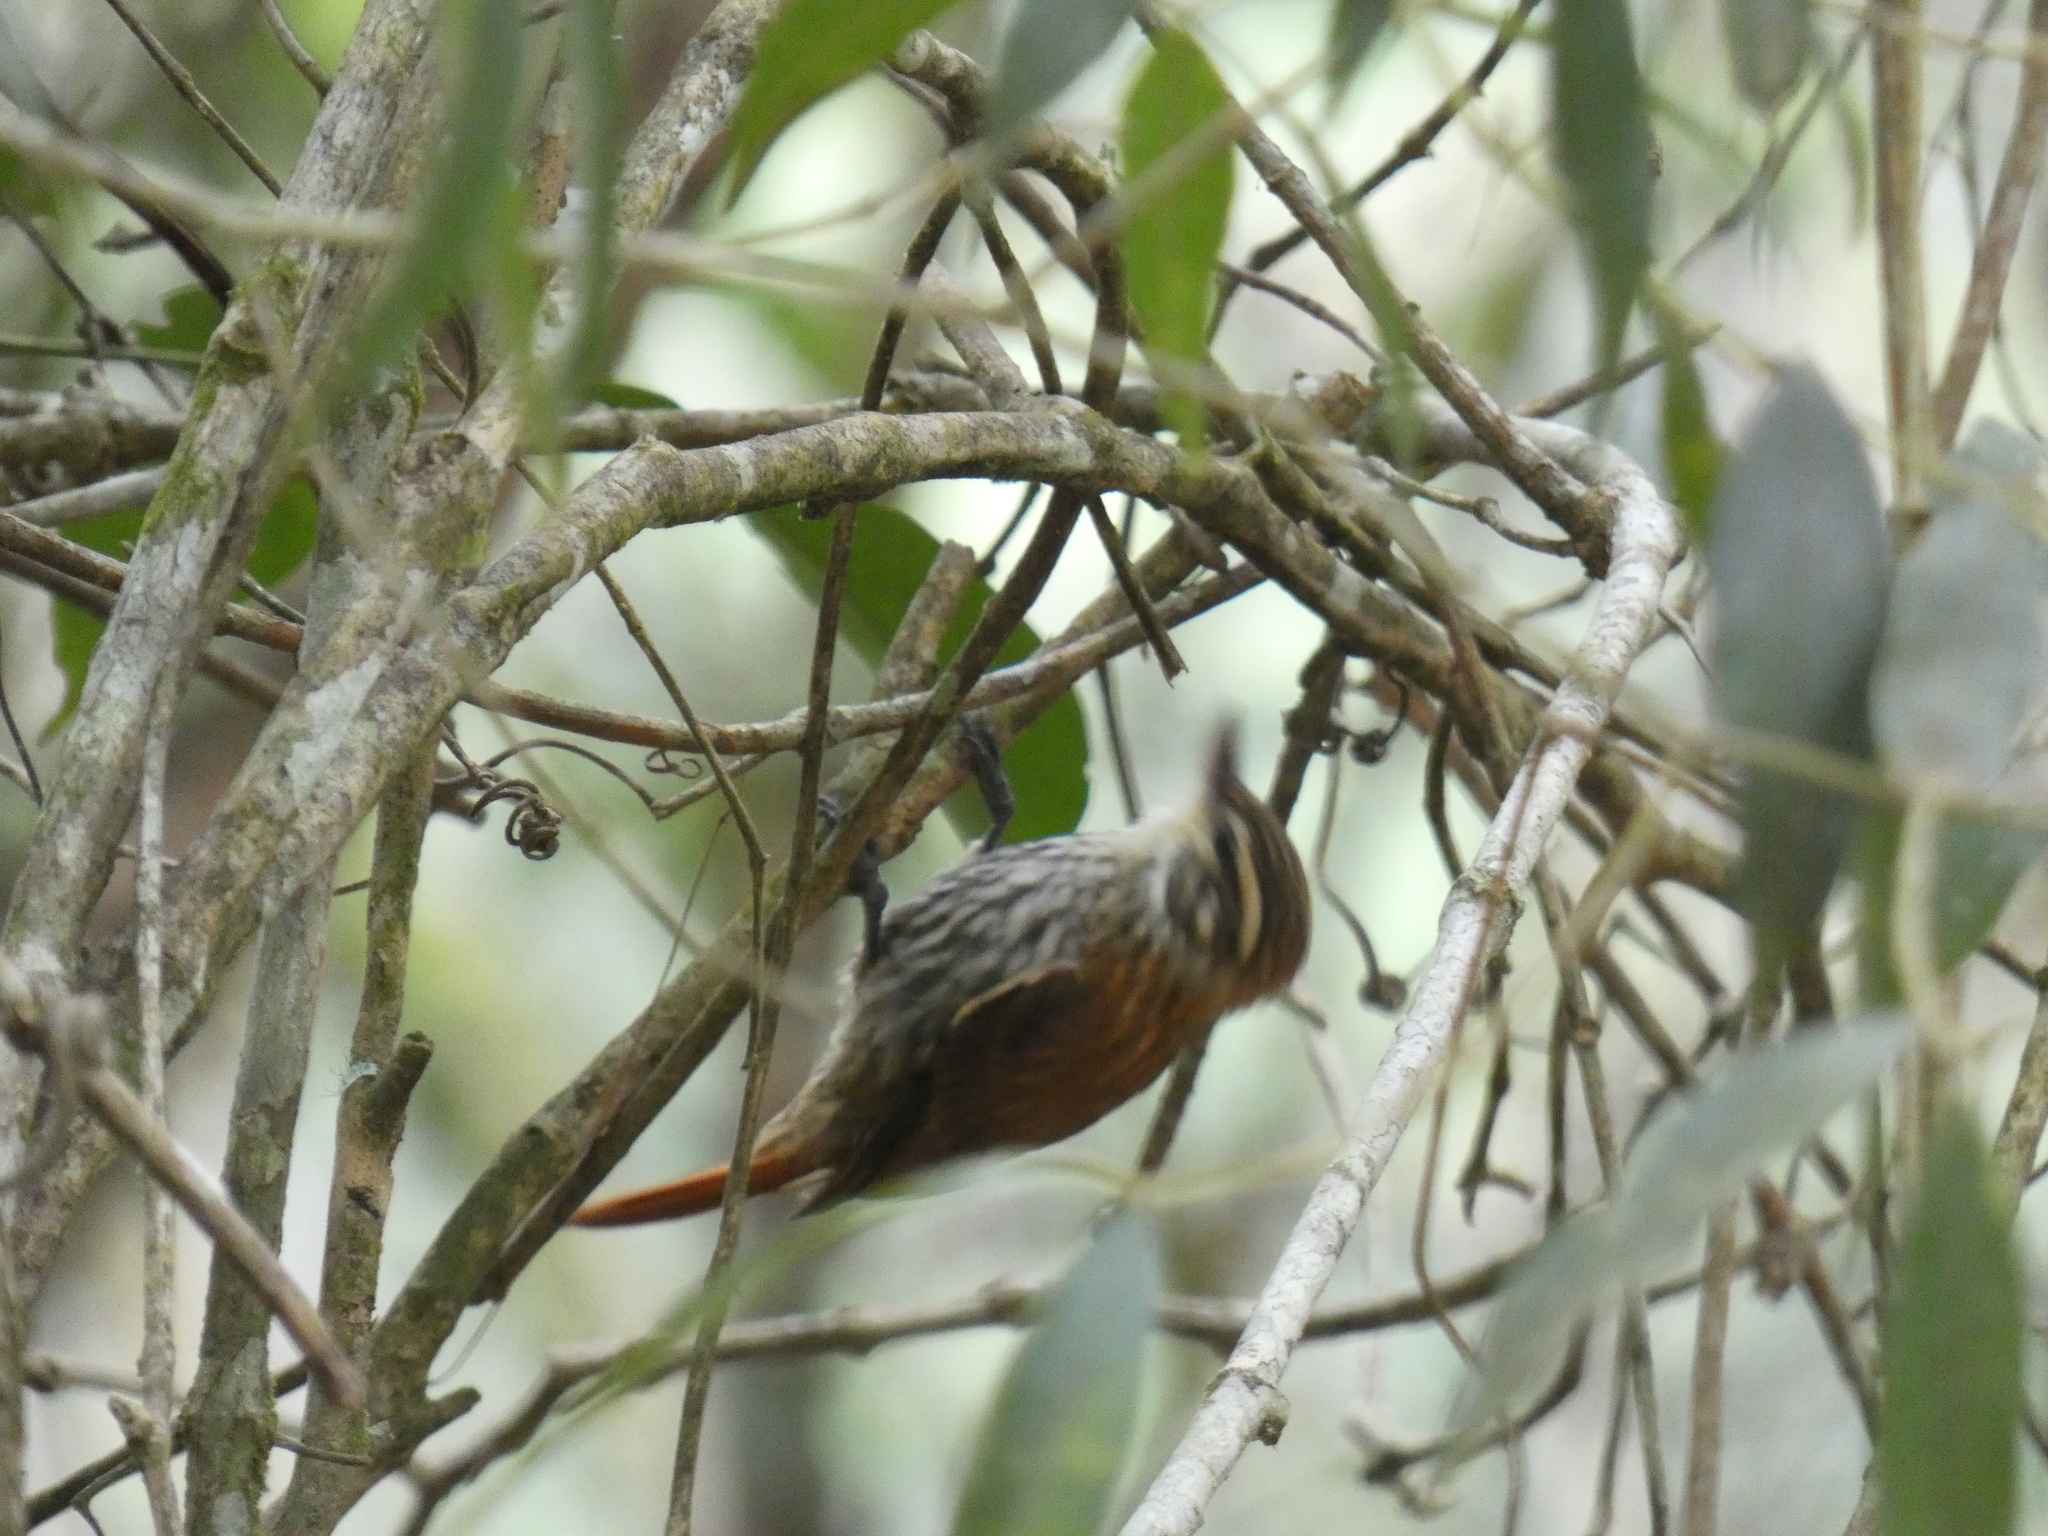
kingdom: Animalia
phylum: Chordata
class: Aves
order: Passeriformes
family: Furnariidae
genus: Xenops
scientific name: Xenops rutilans
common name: Streaked xenops
